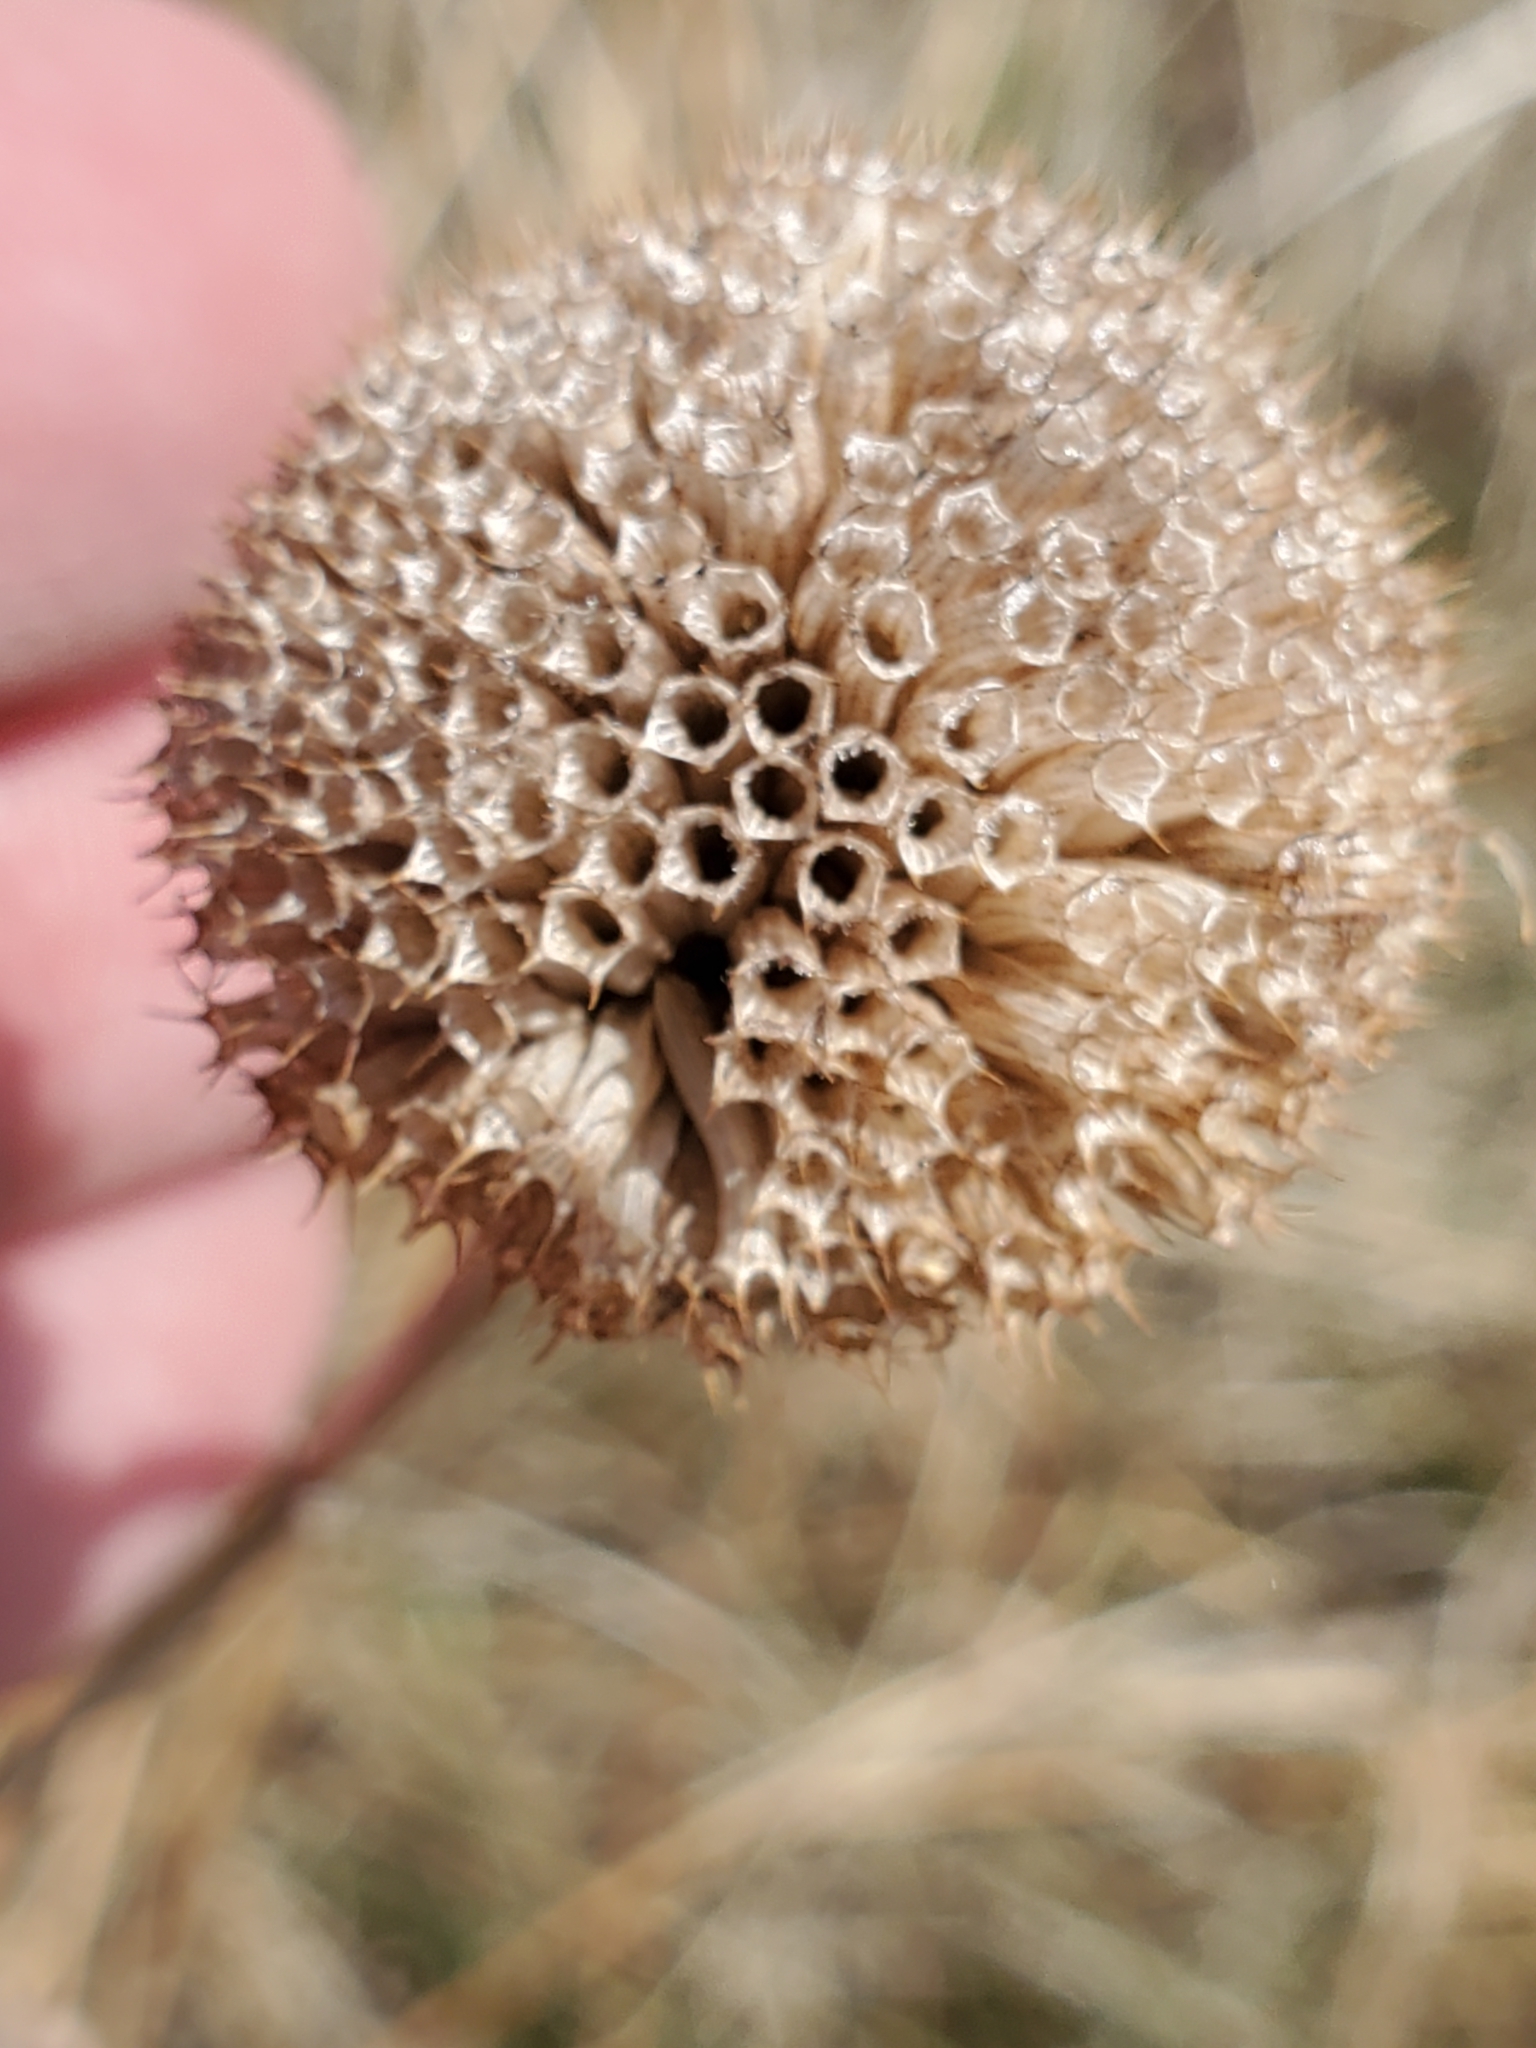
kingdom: Plantae
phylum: Tracheophyta
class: Magnoliopsida
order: Lamiales
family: Lamiaceae
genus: Monarda
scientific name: Monarda fistulosa
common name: Purple beebalm
